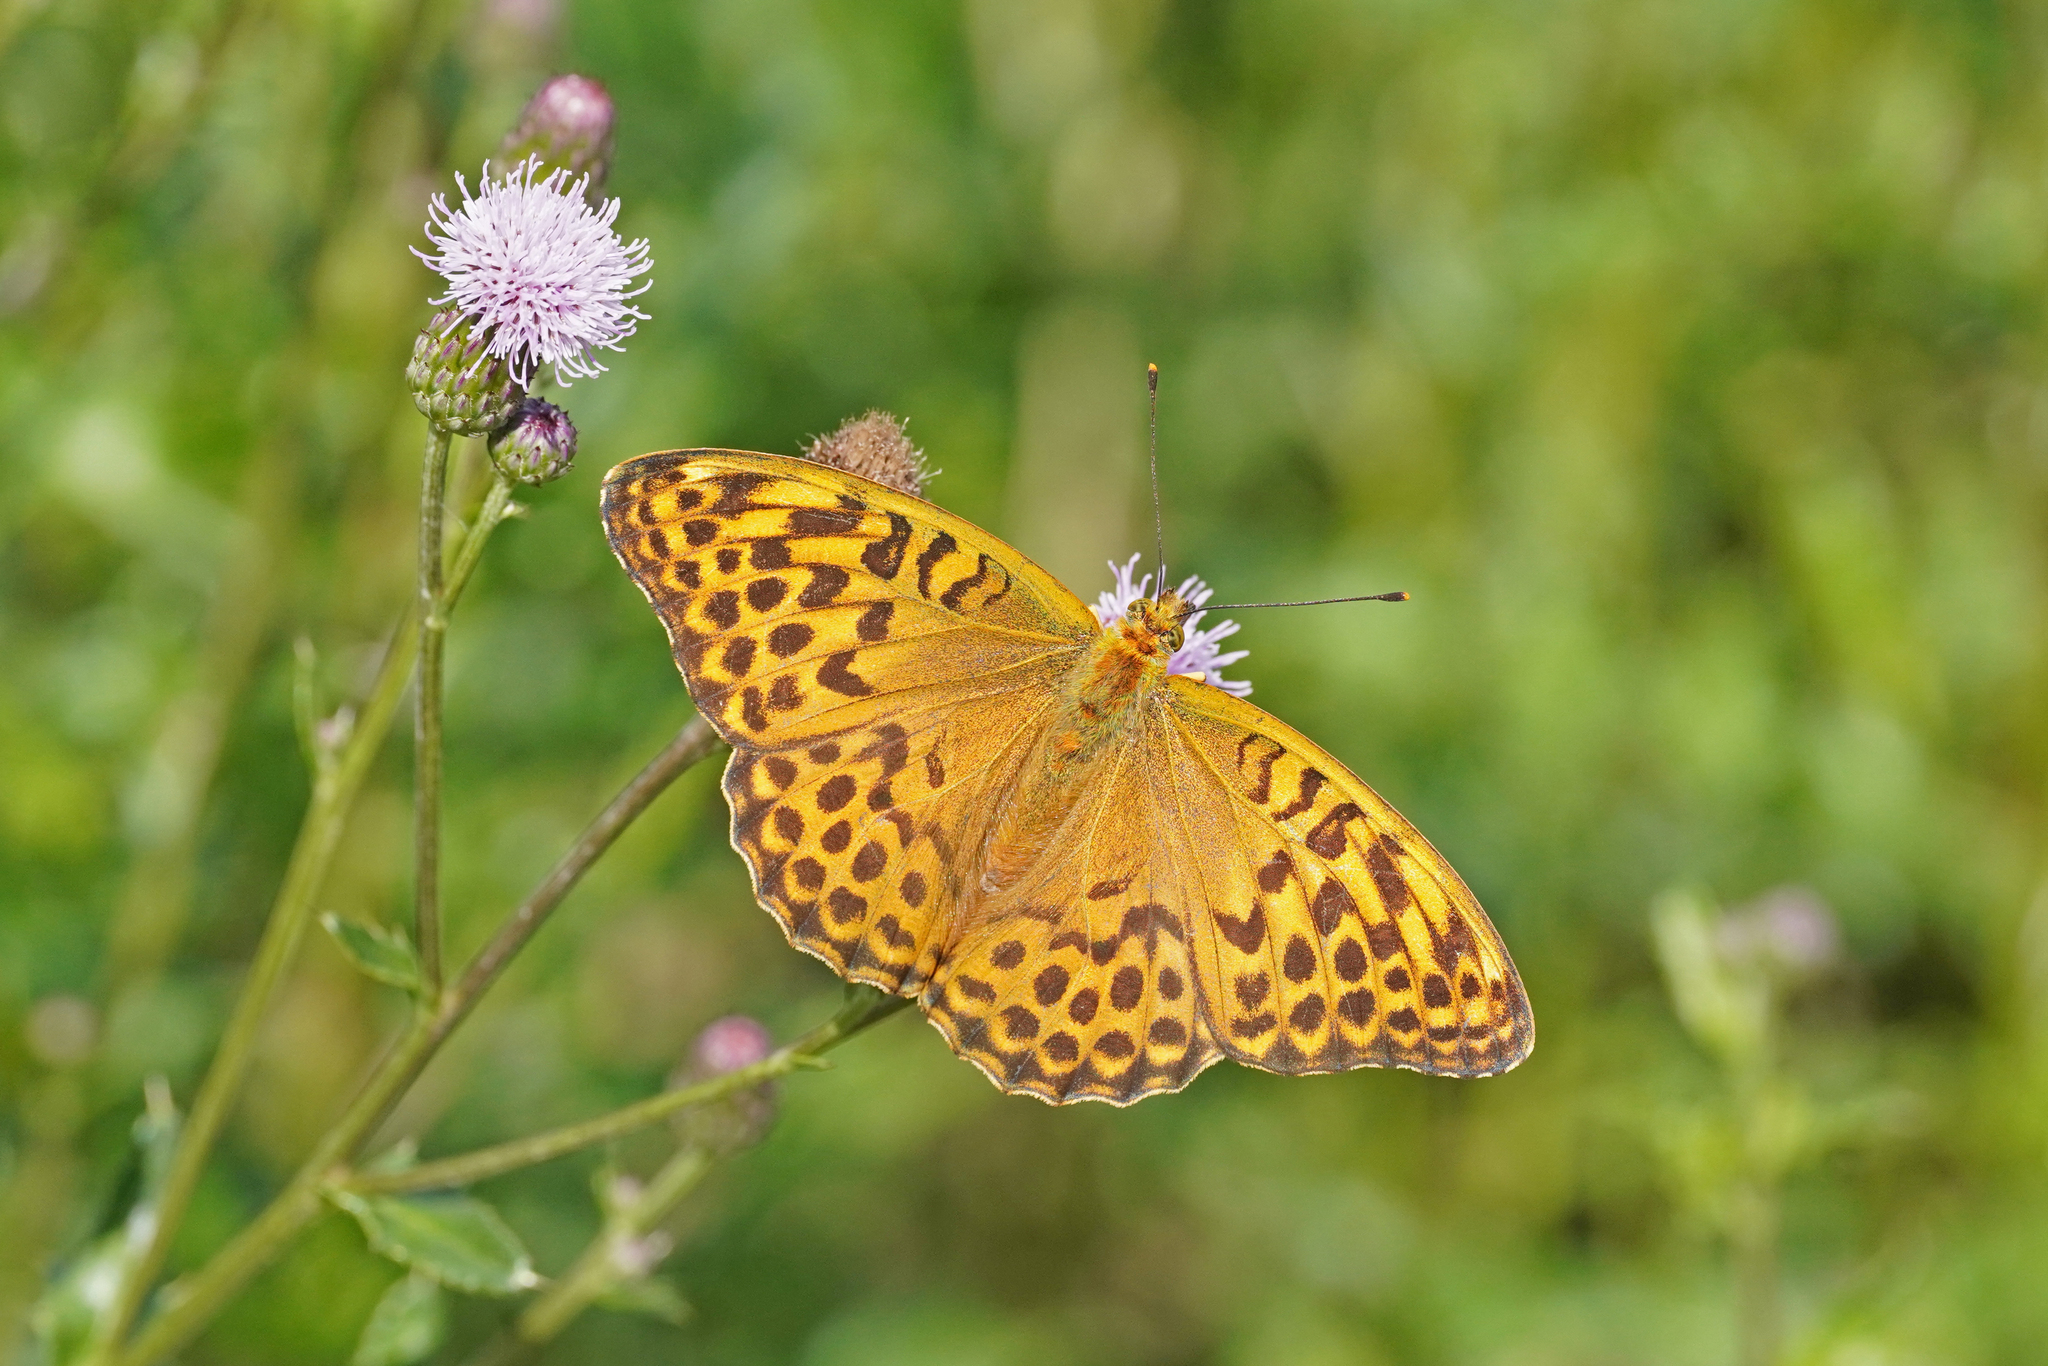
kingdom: Animalia
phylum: Arthropoda
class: Insecta
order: Lepidoptera
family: Nymphalidae
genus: Argynnis
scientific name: Argynnis paphia
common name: Silver-washed fritillary
